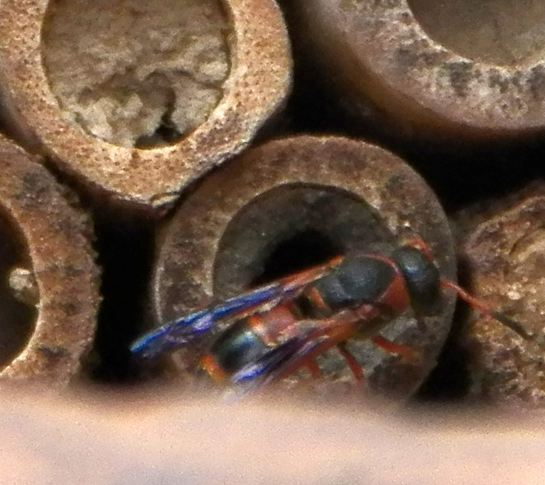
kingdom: Animalia
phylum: Arthropoda
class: Insecta
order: Hymenoptera
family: Eumenidae
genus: Pachodynerus
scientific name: Pachodynerus erynnis
